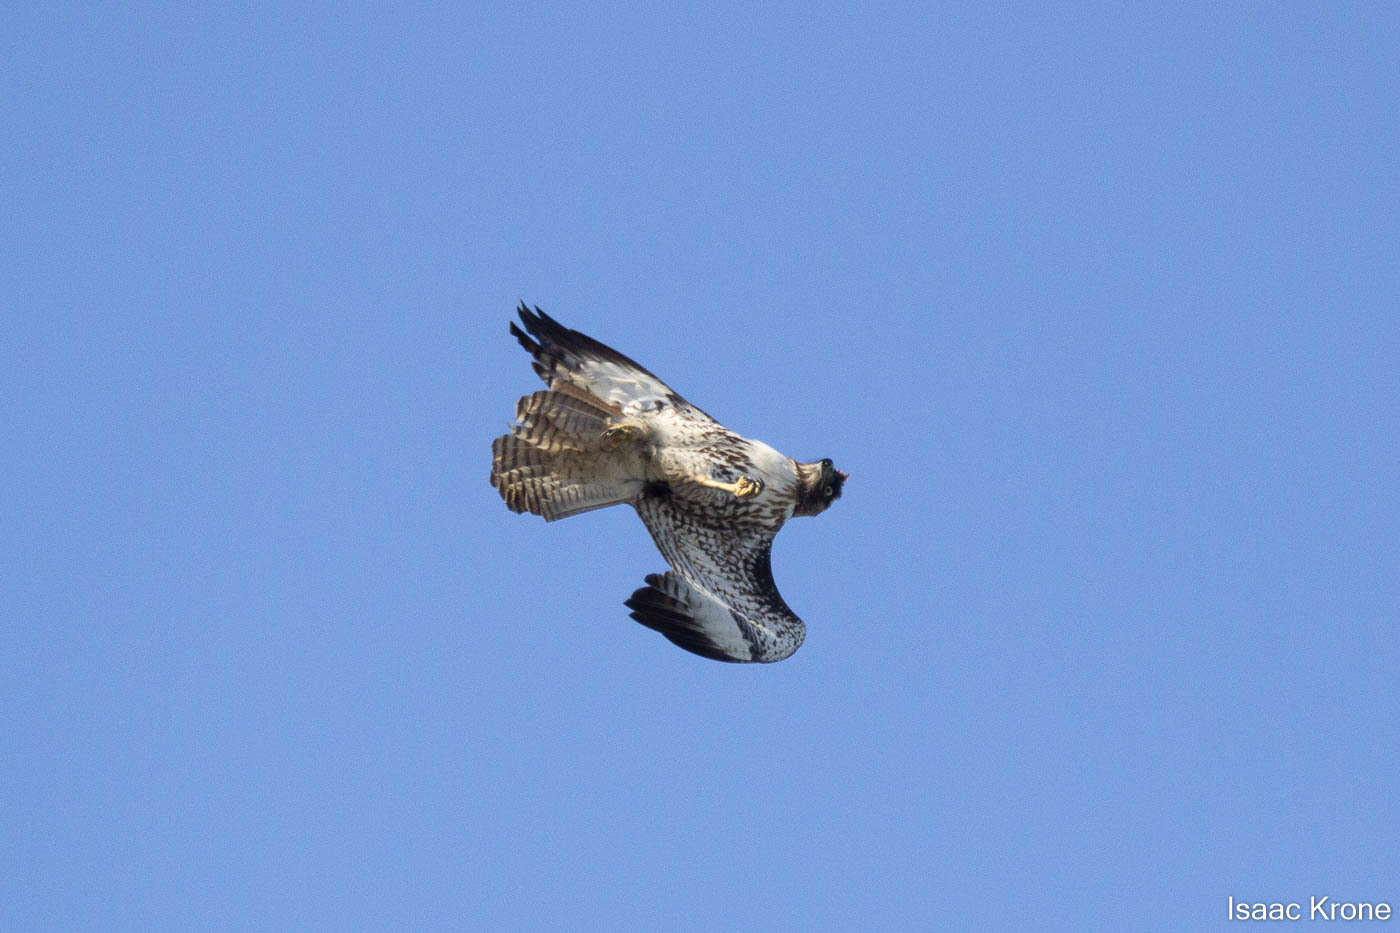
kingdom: Animalia
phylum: Chordata
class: Aves
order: Accipitriformes
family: Accipitridae
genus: Buteo
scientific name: Buteo jamaicensis
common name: Red-tailed hawk
